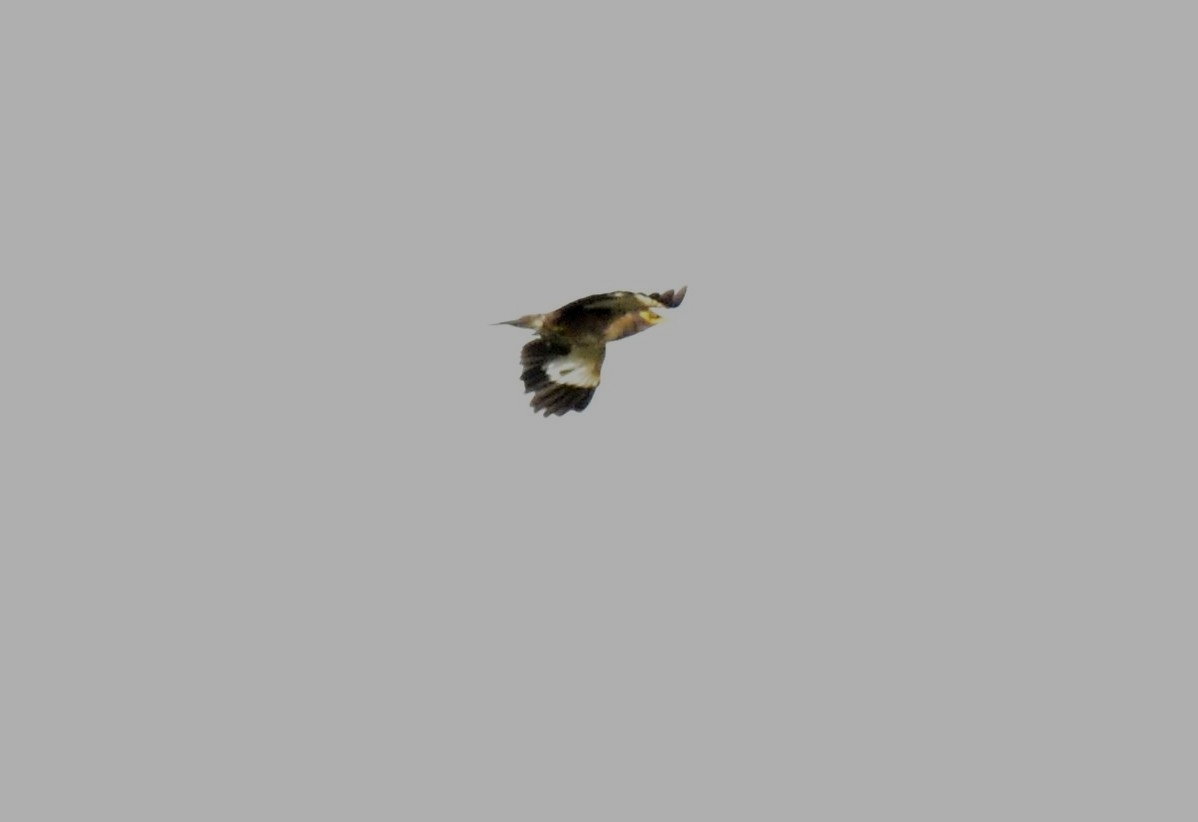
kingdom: Animalia
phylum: Chordata
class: Aves
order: Passeriformes
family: Sturnidae
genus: Acridotheres
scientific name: Acridotheres tristis
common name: Common myna
